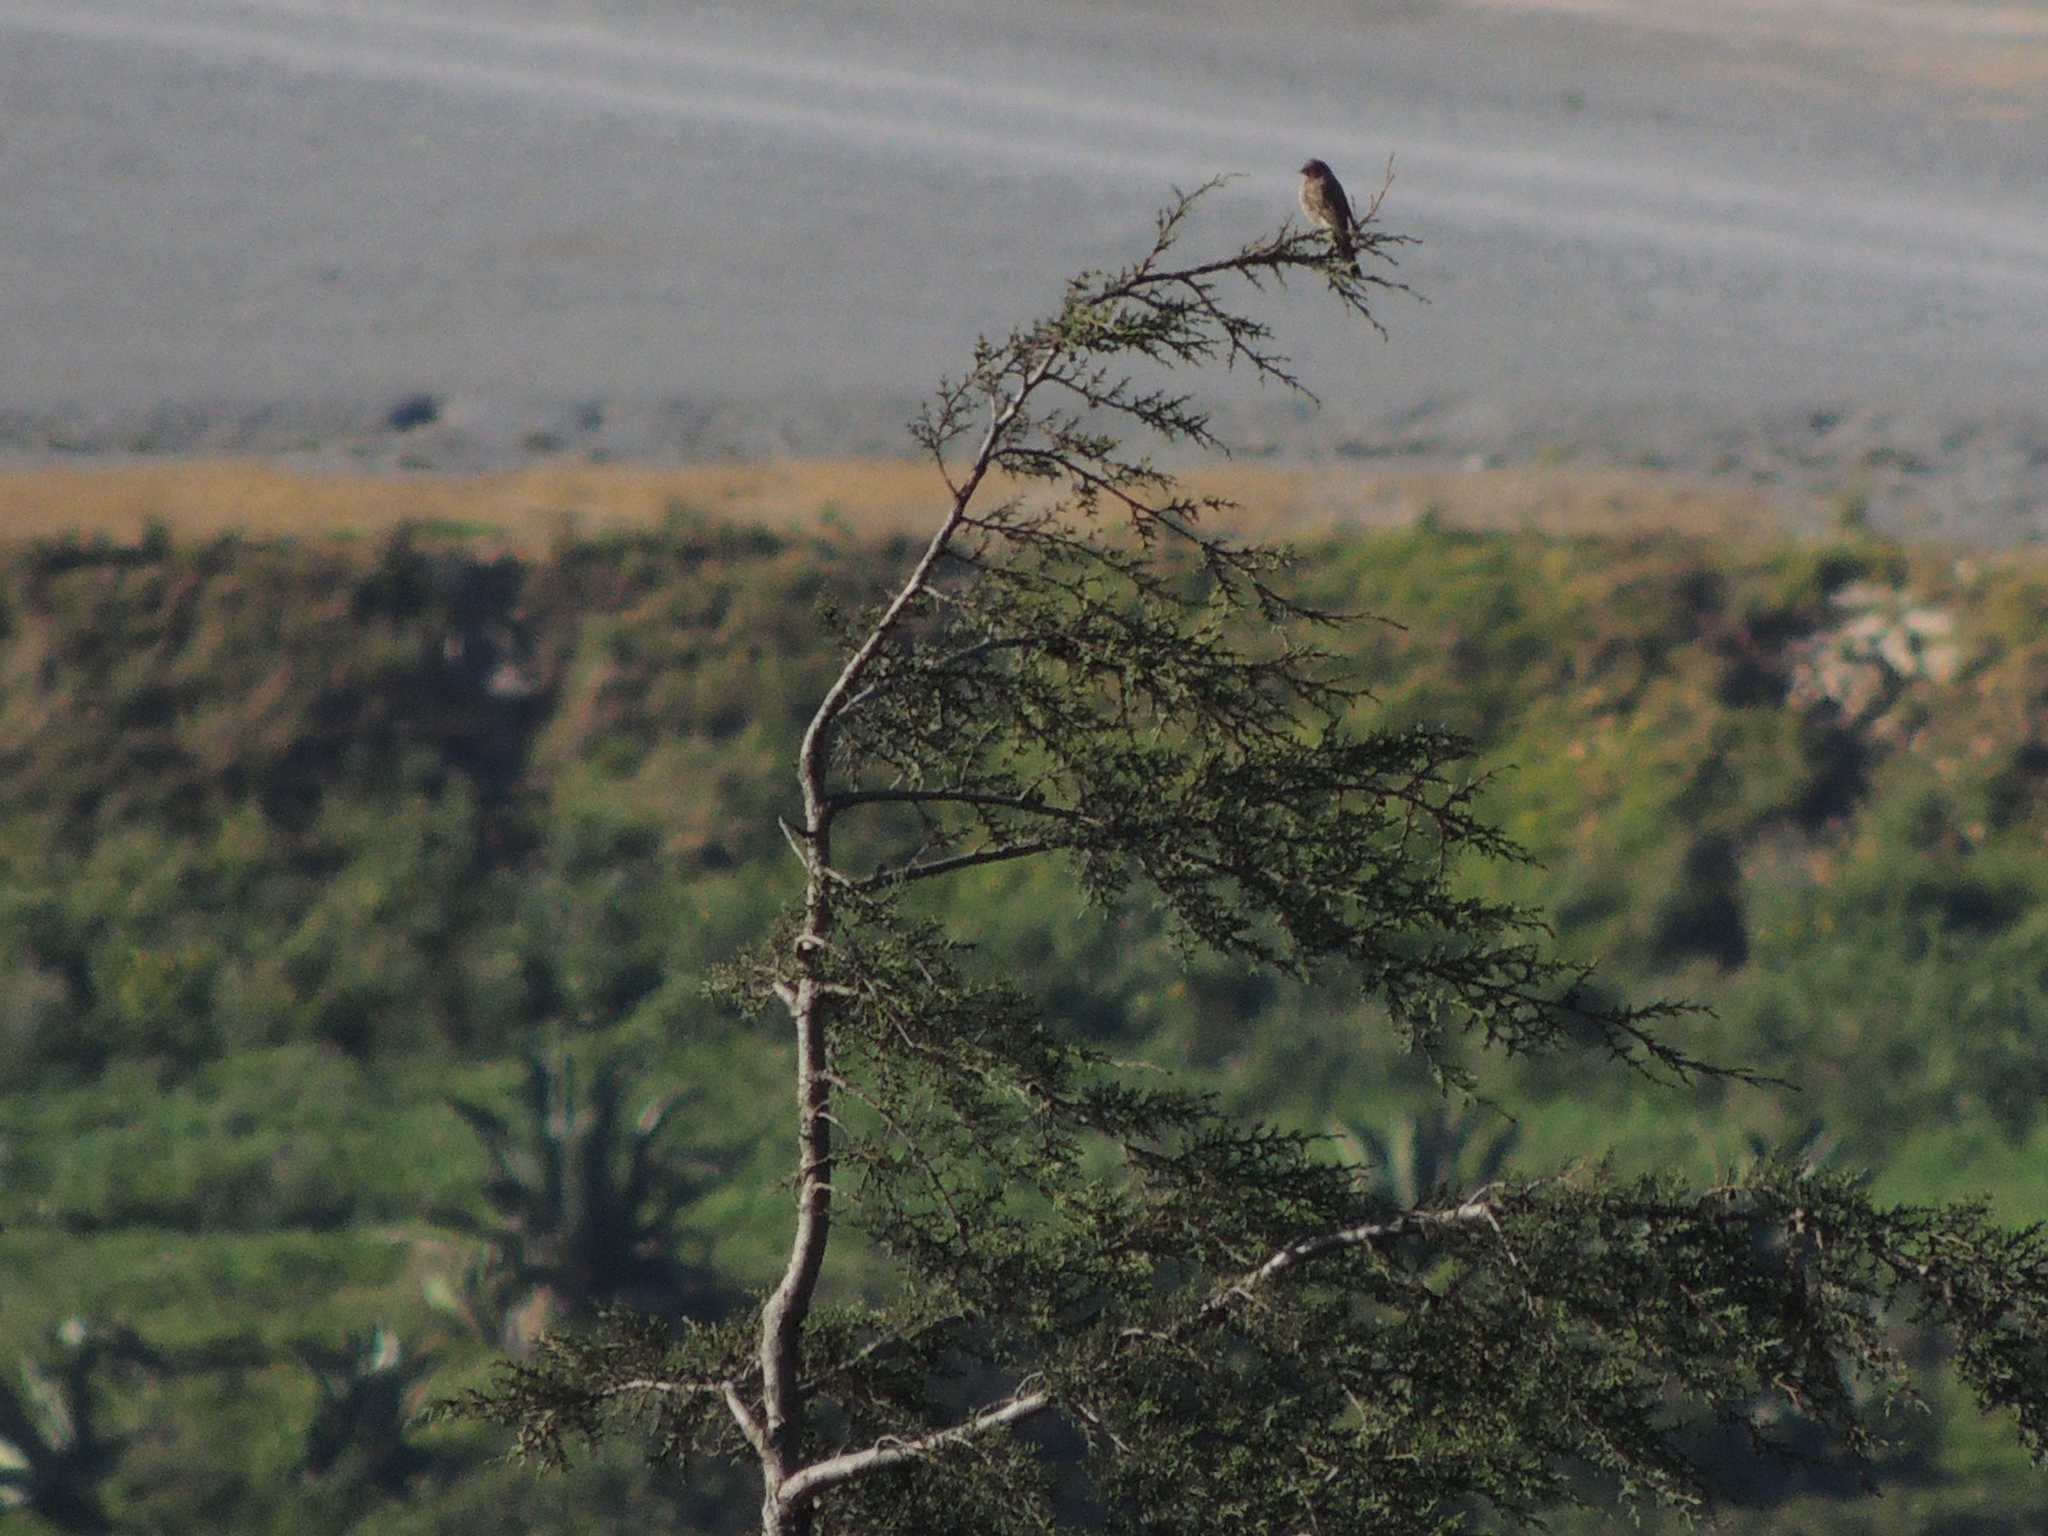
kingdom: Animalia
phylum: Chordata
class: Aves
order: Passeriformes
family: Fringillidae
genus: Haemorhous
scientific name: Haemorhous mexicanus
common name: House finch
